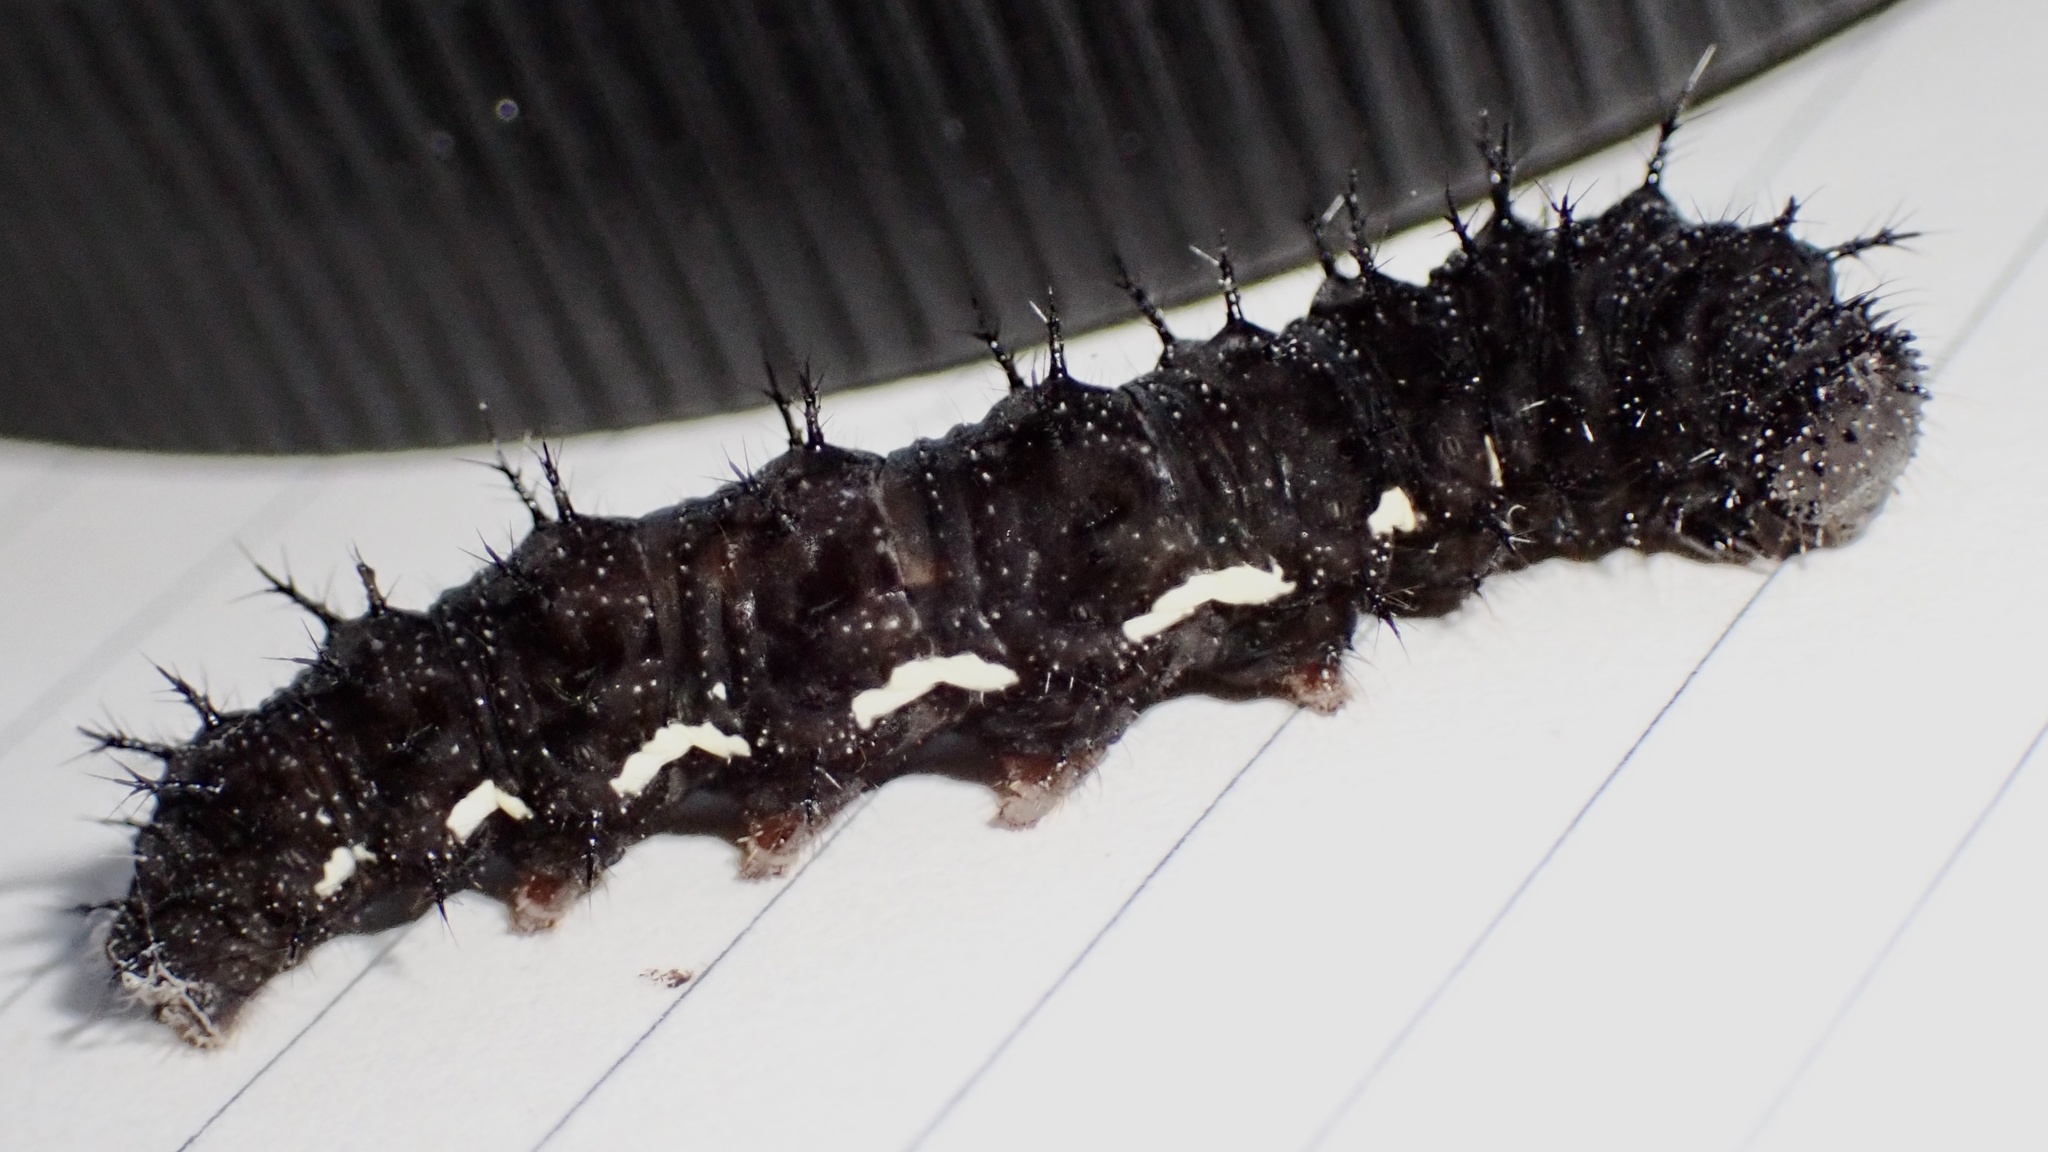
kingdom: Animalia
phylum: Arthropoda
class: Insecta
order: Lepidoptera
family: Nymphalidae
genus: Vanessa
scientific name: Vanessa atalanta
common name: Red admiral
